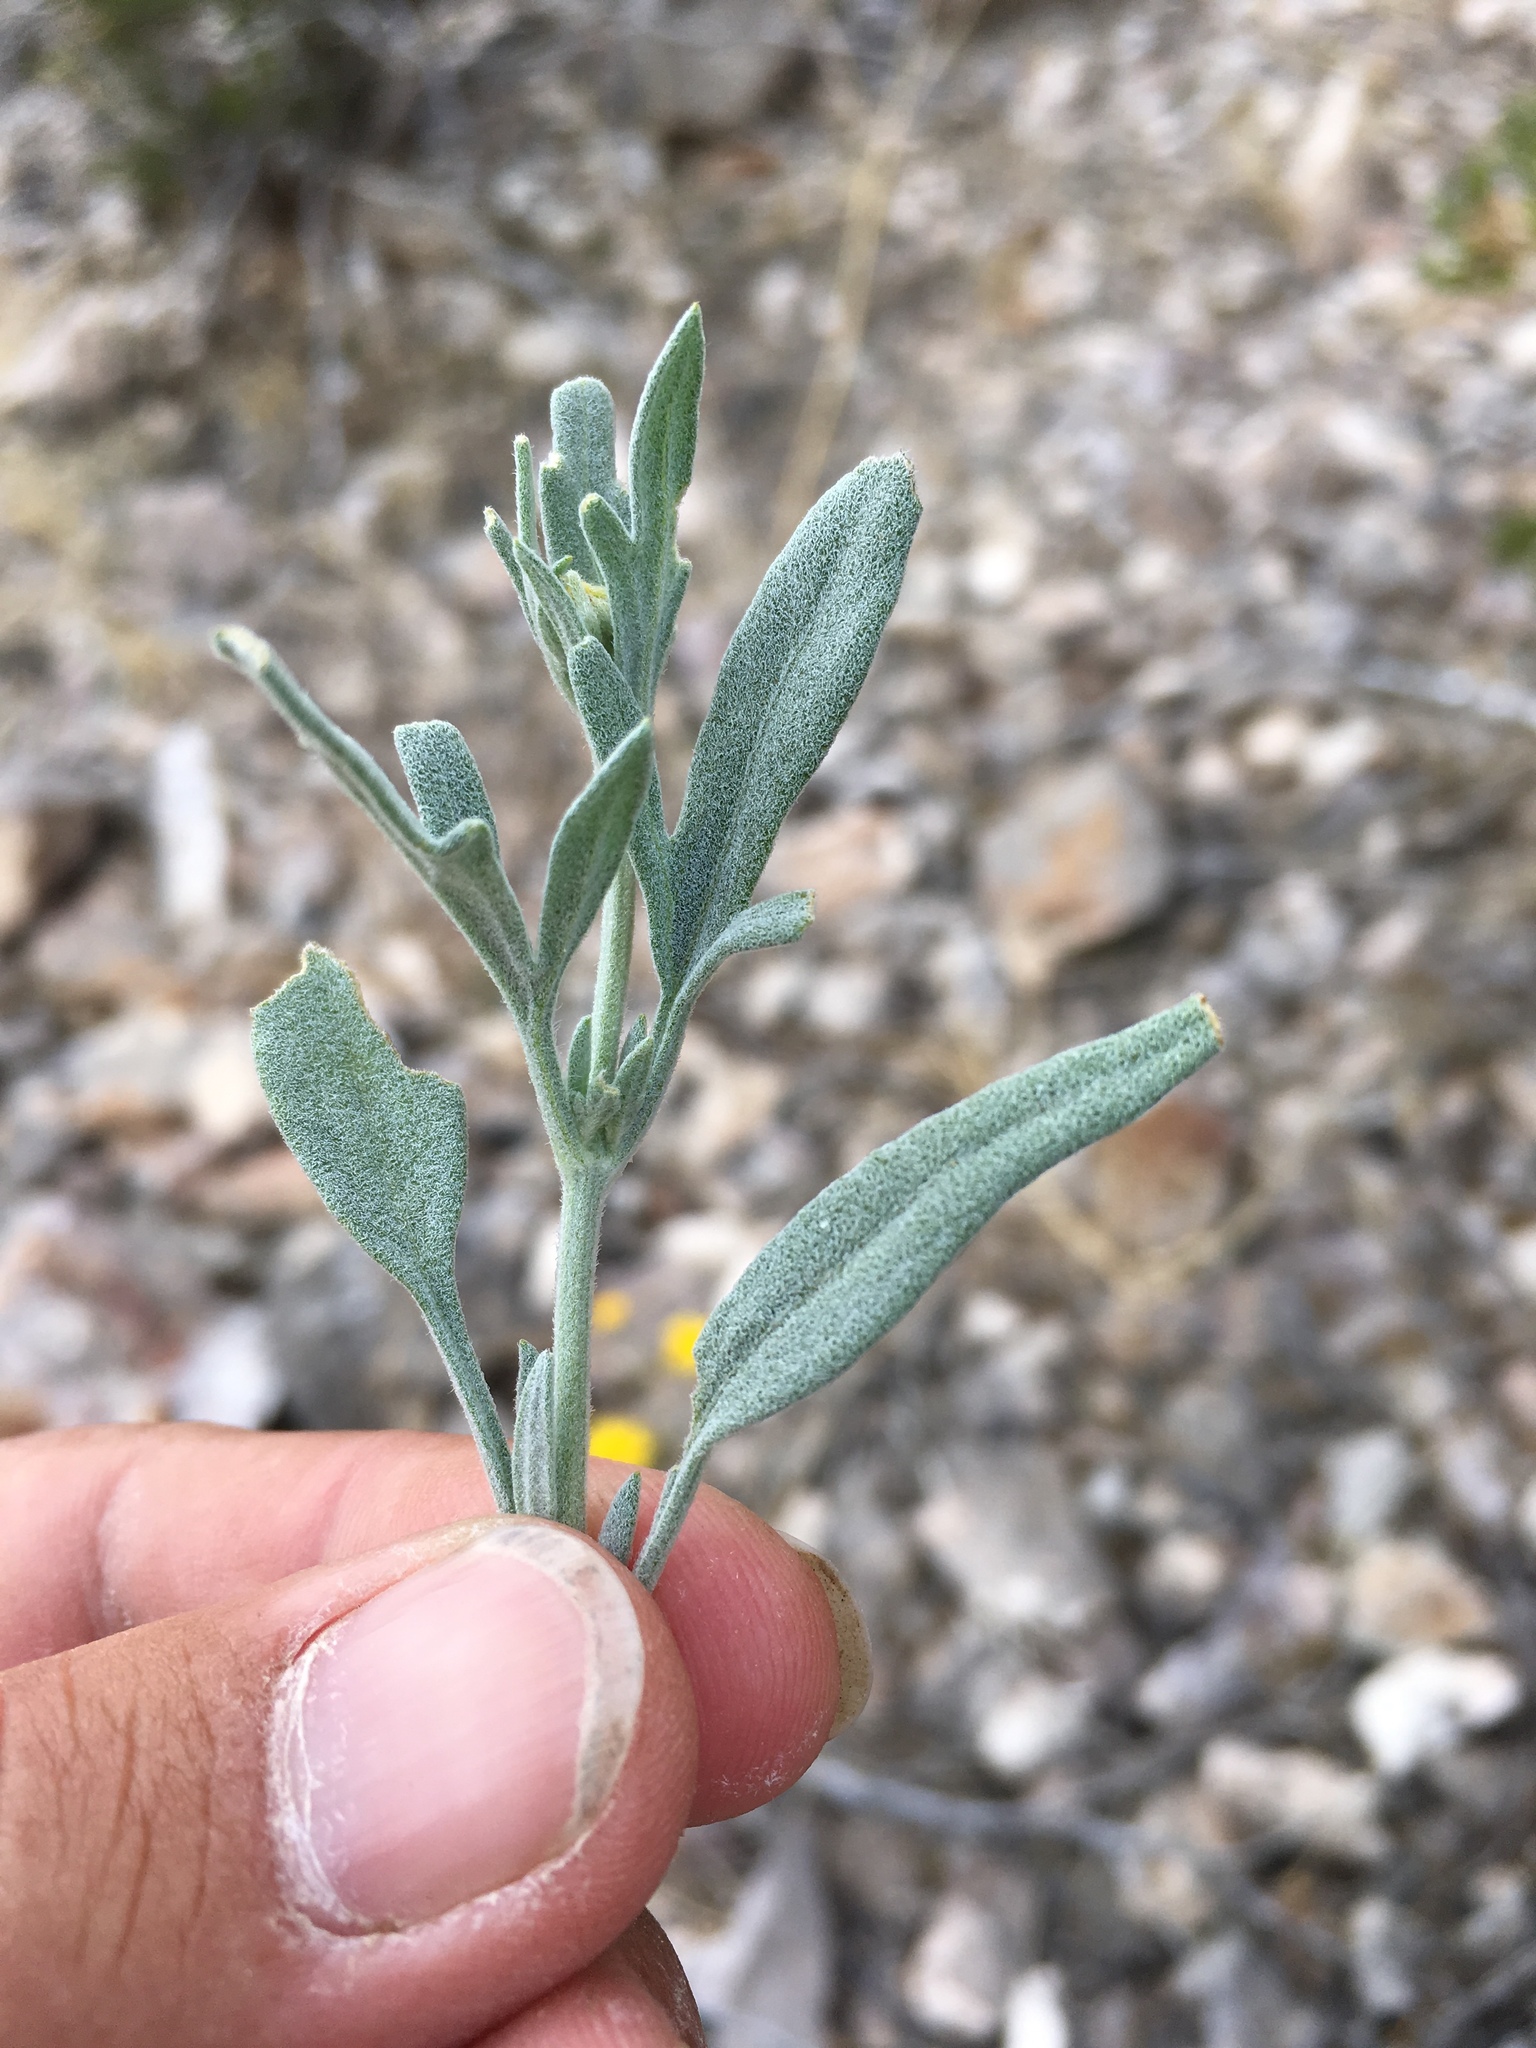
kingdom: Plantae
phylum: Tracheophyta
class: Magnoliopsida
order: Asterales
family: Asteraceae
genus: Picradeniopsis
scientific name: Picradeniopsis absinthifolia
